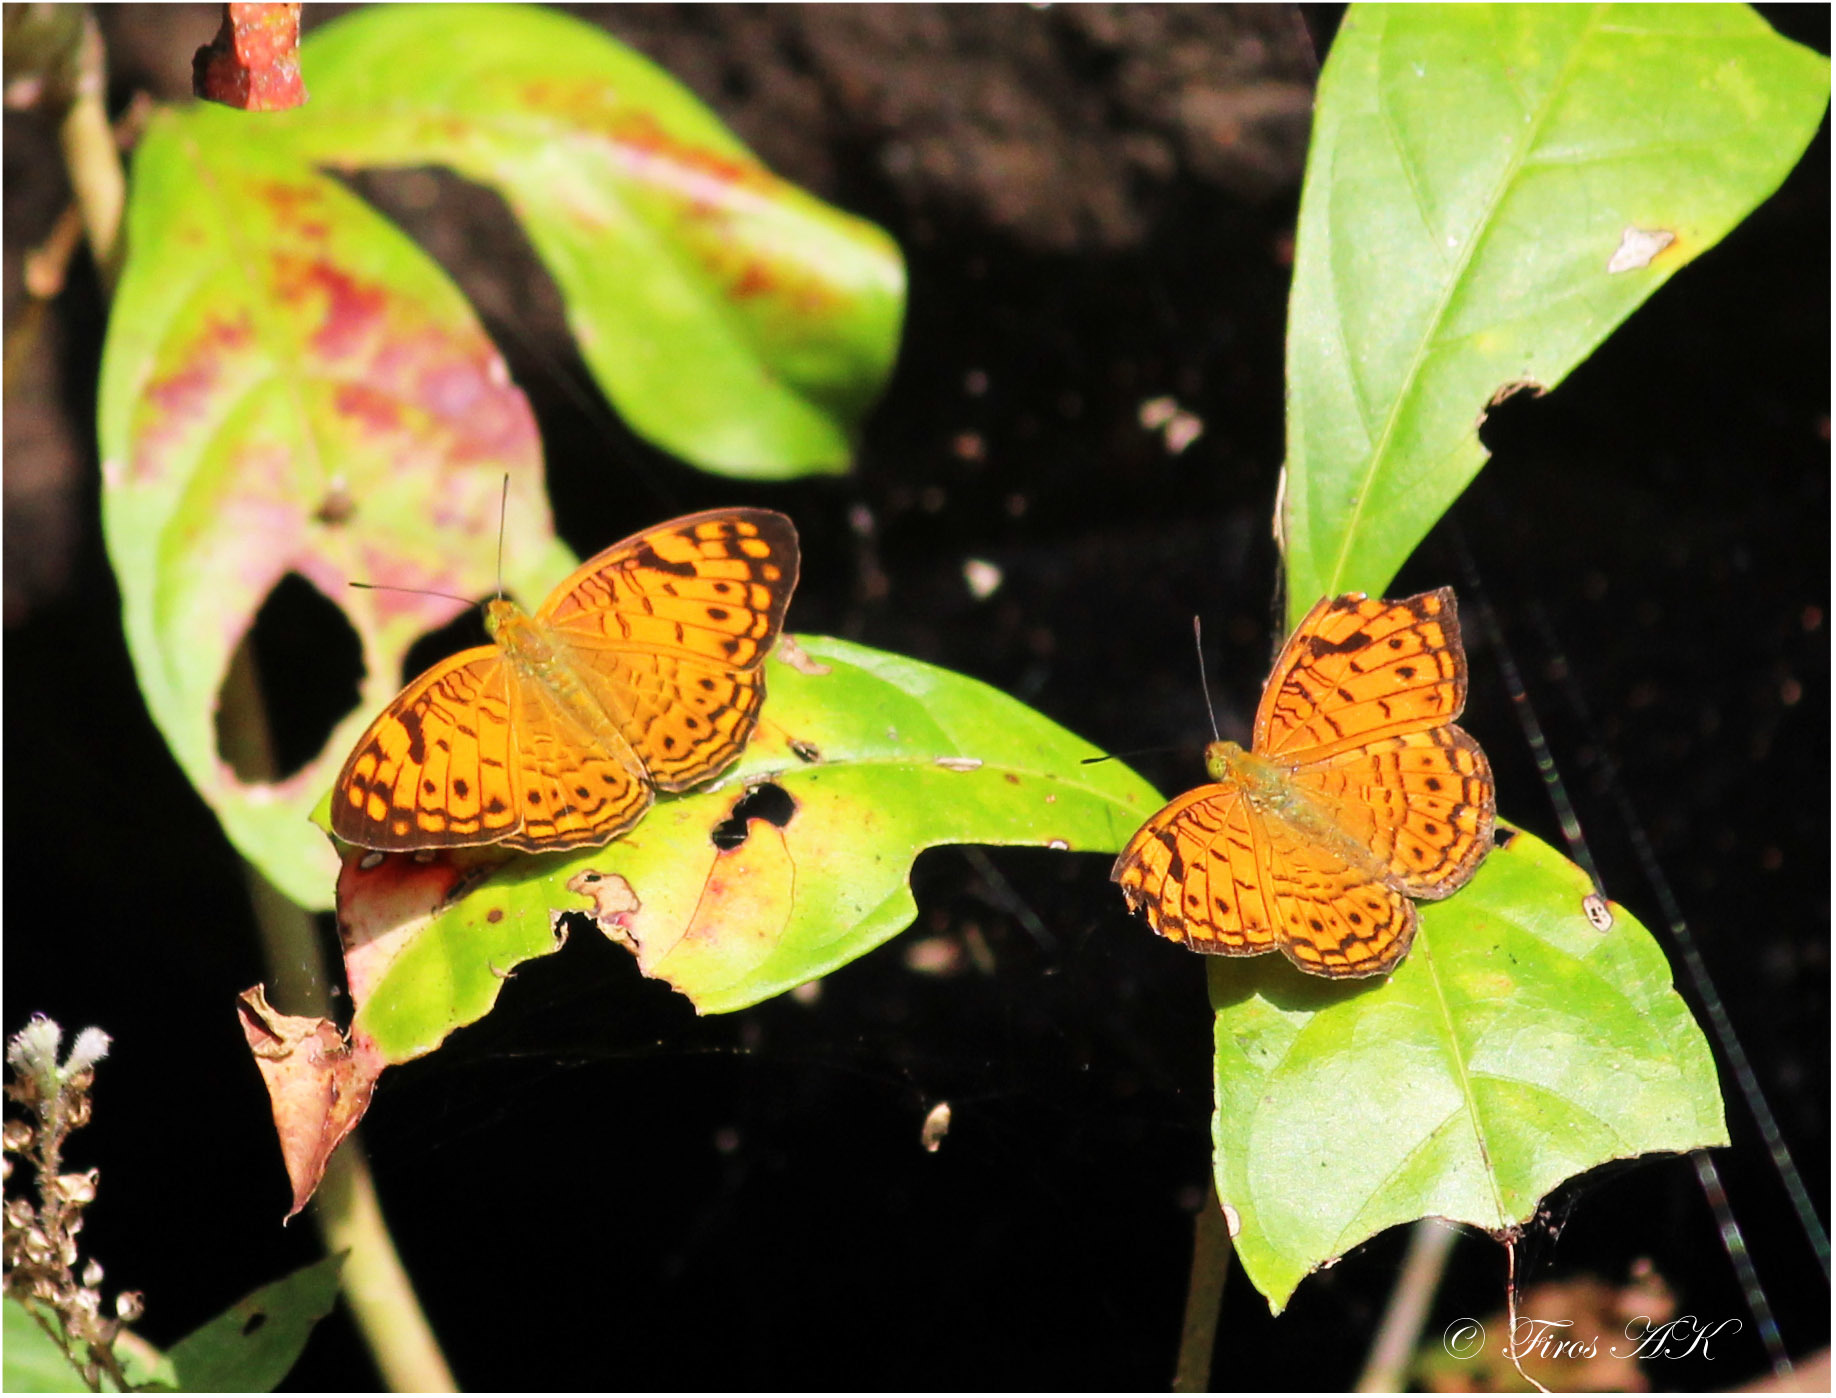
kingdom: Animalia
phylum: Arthropoda
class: Insecta
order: Lepidoptera
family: Nymphalidae
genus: Phalanta
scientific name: Phalanta alcippe
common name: Small leopard
